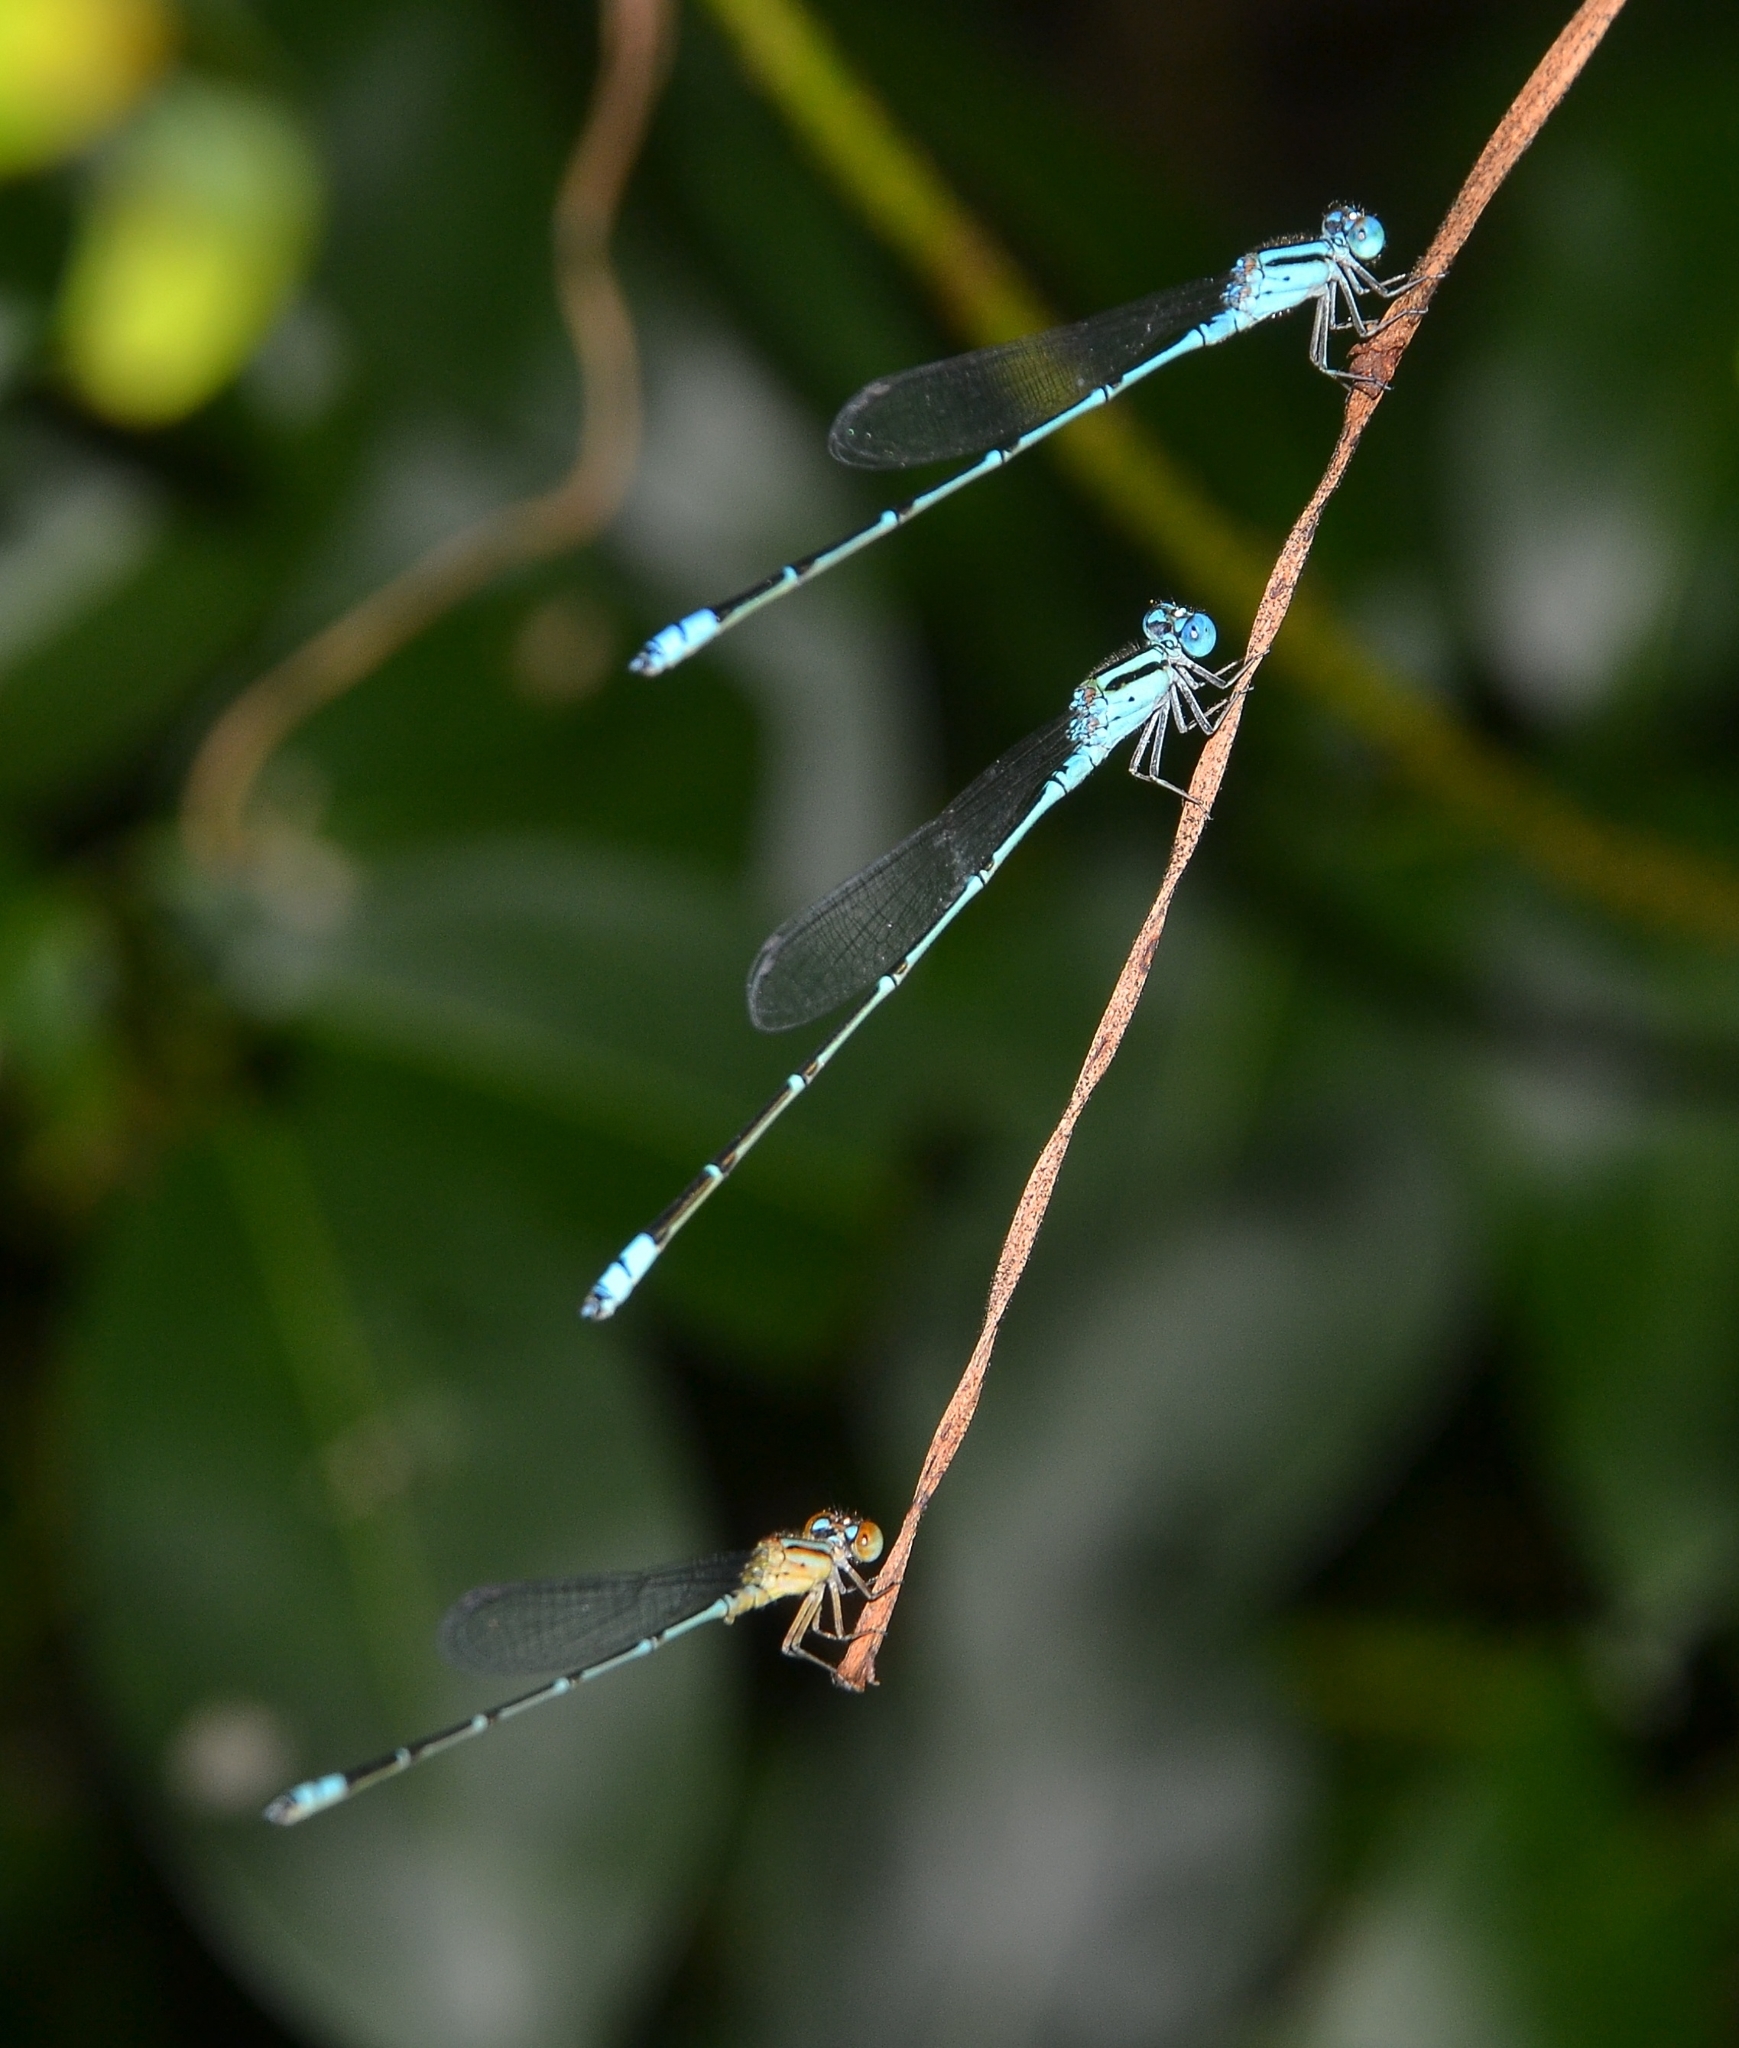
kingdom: Animalia
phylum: Arthropoda
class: Insecta
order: Odonata
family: Coenagrionidae
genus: Pseudagrion
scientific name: Pseudagrion microcephalum
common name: Blue riverdamsel
